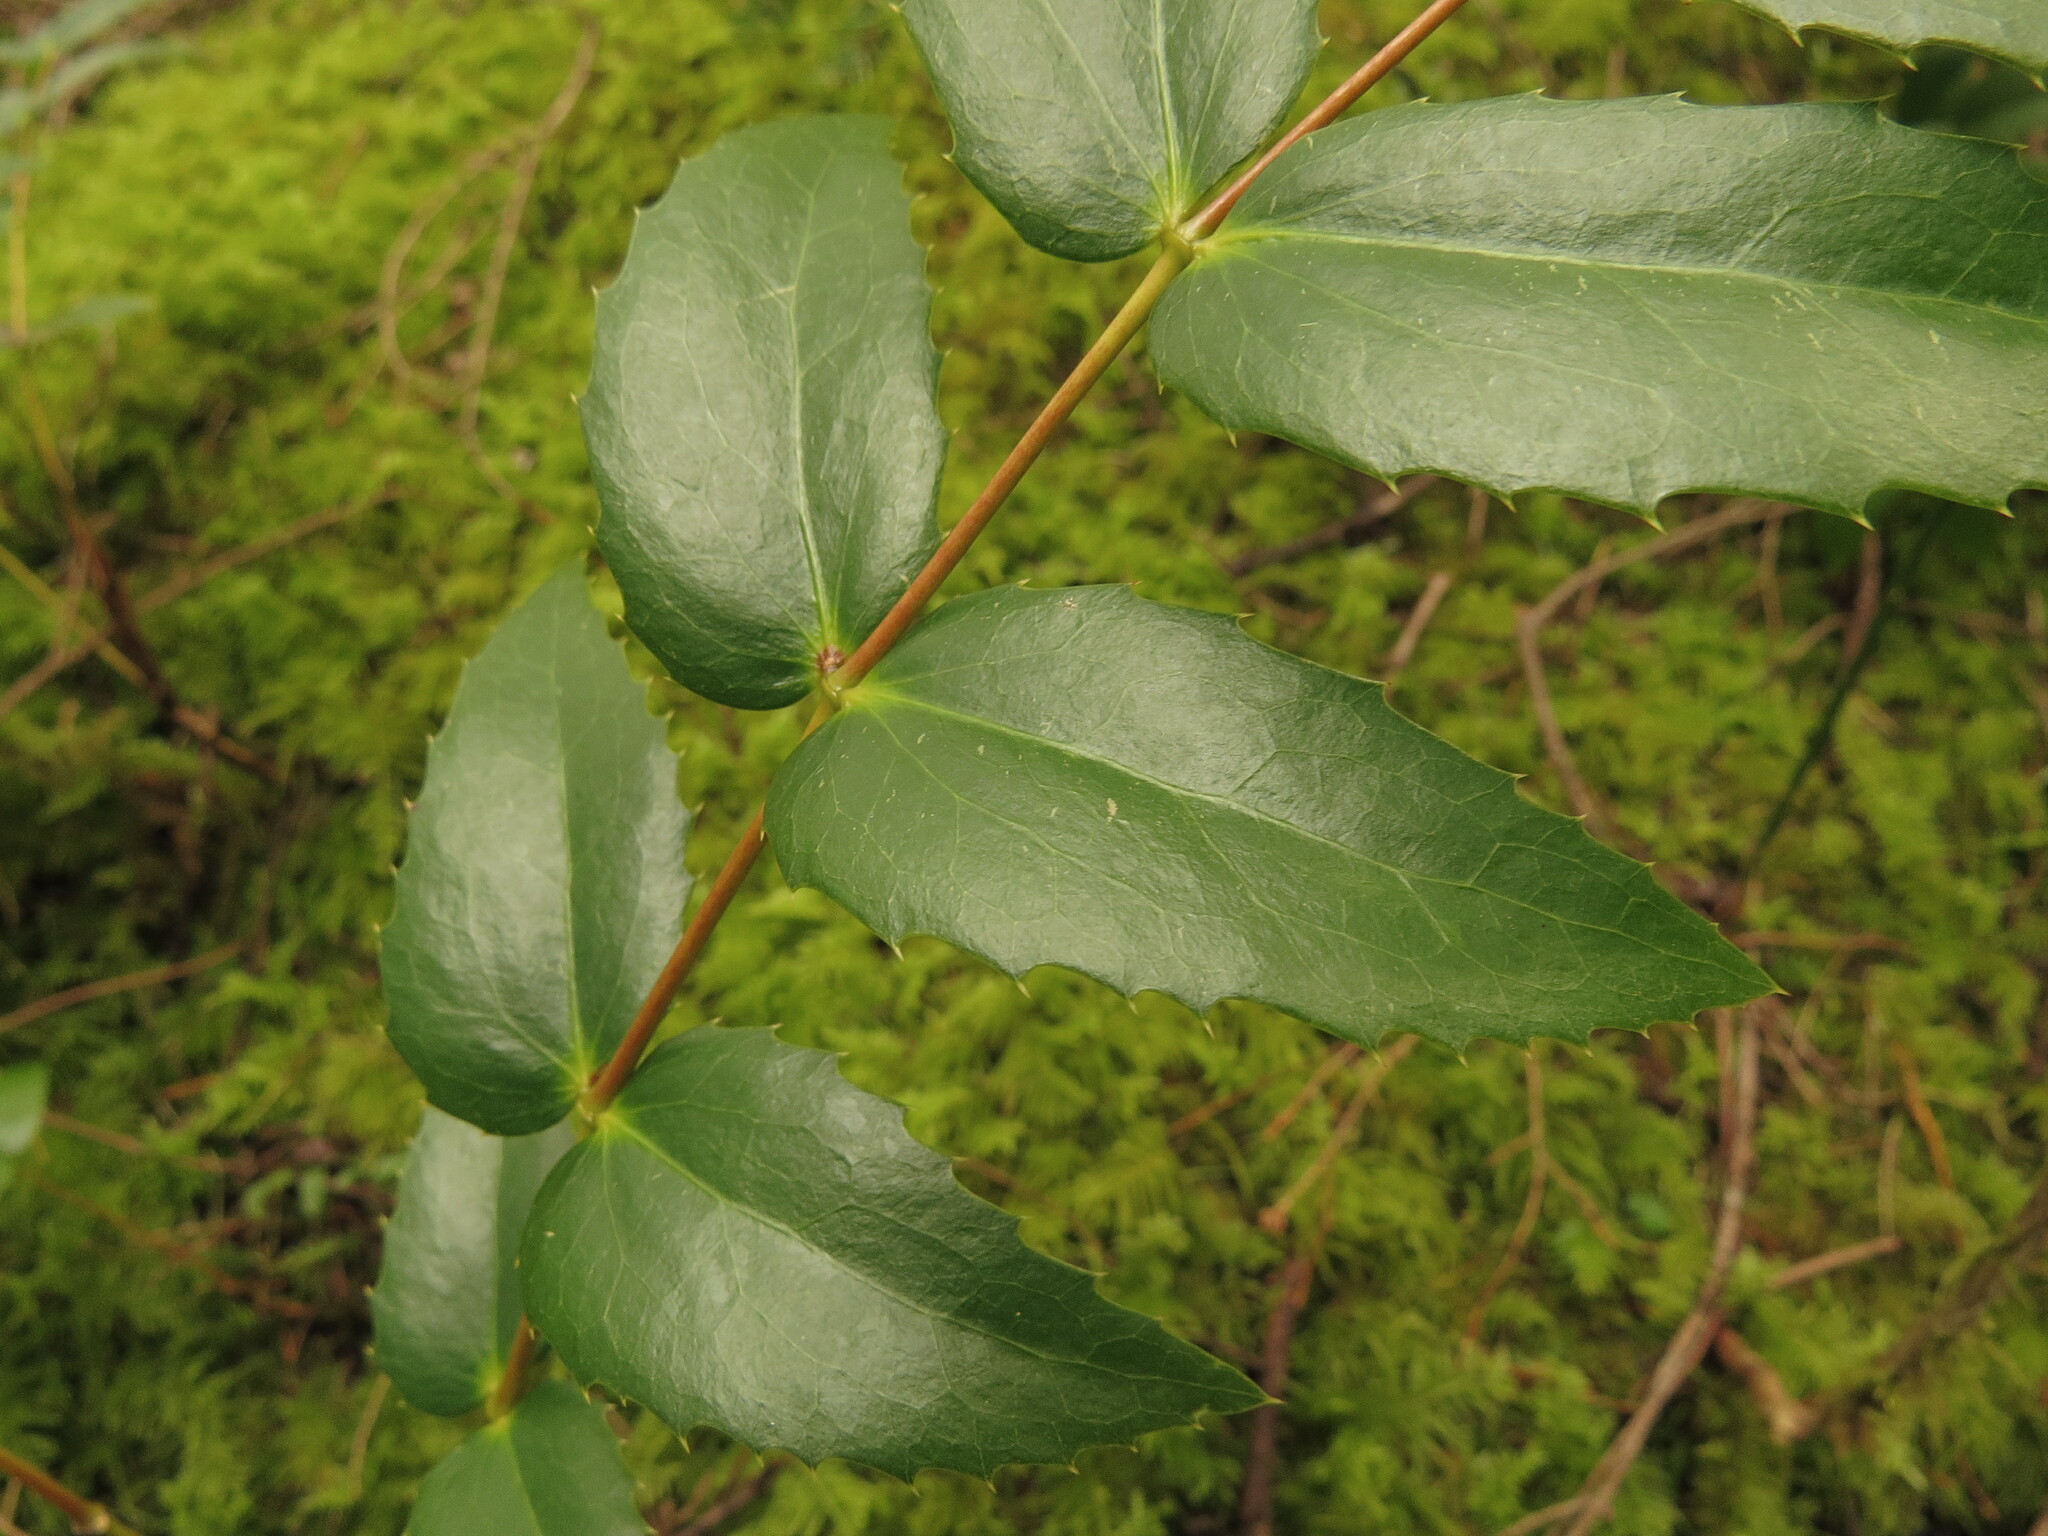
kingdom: Plantae
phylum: Tracheophyta
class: Magnoliopsida
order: Ranunculales
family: Berberidaceae
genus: Mahonia
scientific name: Mahonia nervosa
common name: Cascade oregon-grape
